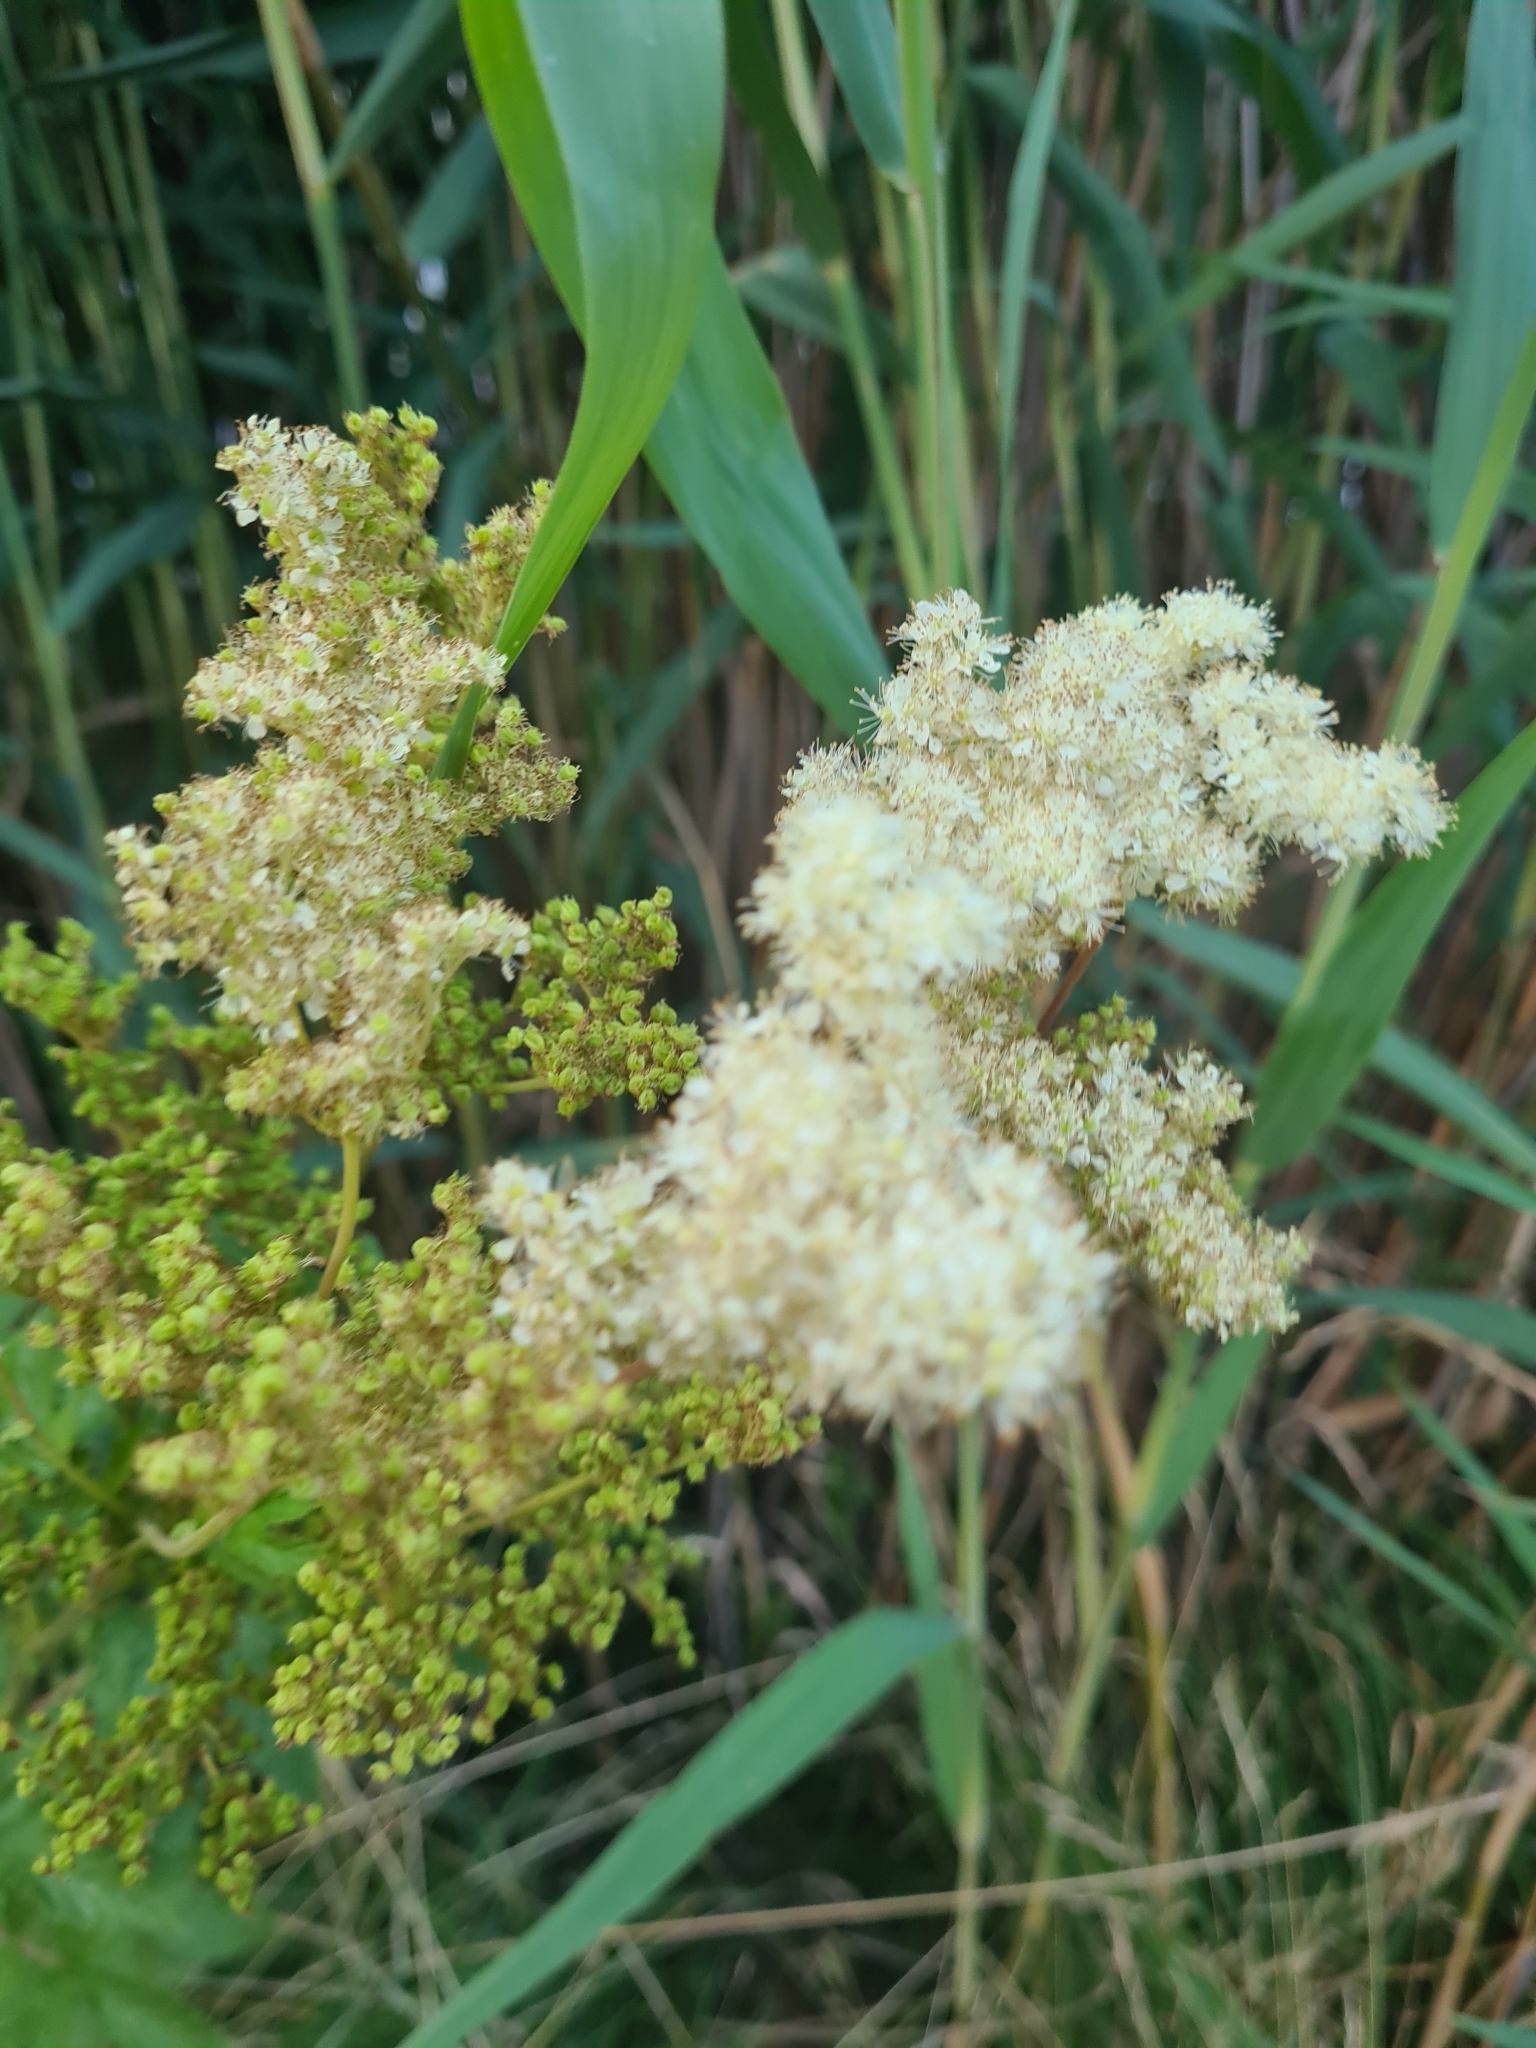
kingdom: Plantae
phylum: Tracheophyta
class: Magnoliopsida
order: Rosales
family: Rosaceae
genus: Filipendula
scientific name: Filipendula ulmaria
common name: Meadowsweet
